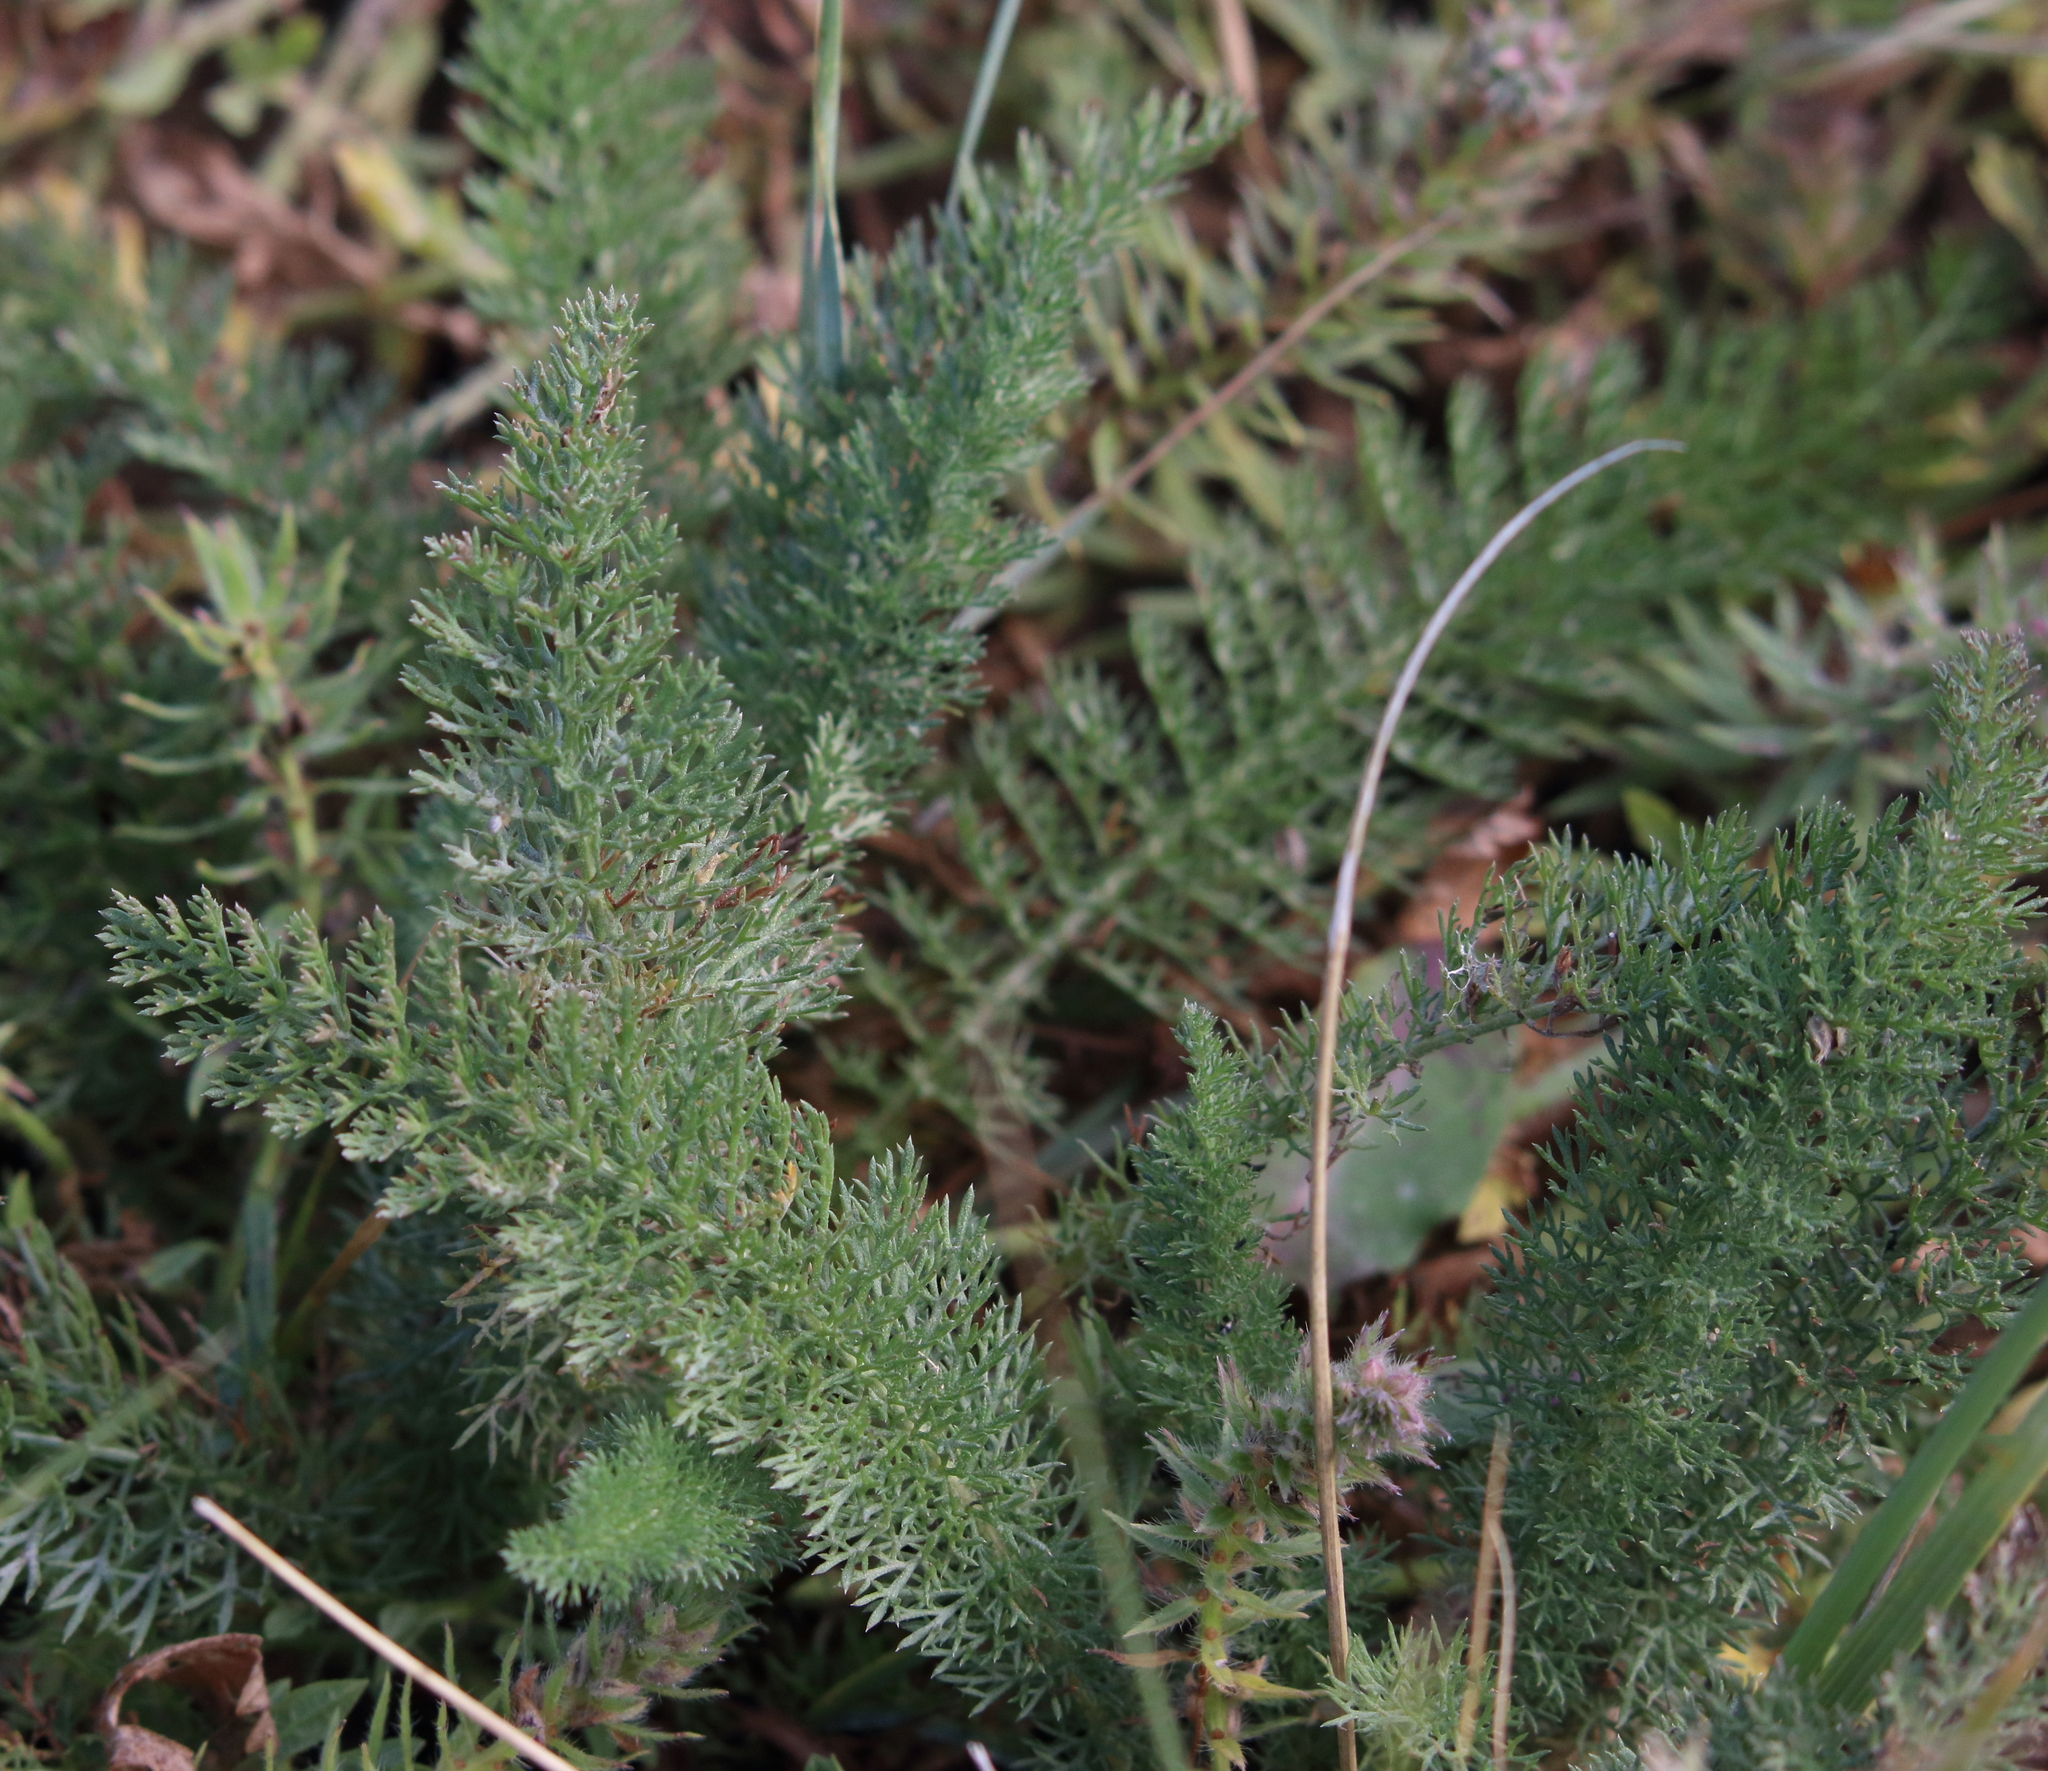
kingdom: Plantae
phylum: Tracheophyta
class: Magnoliopsida
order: Asterales
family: Asteraceae
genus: Achillea
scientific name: Achillea millefolium
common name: Yarrow
